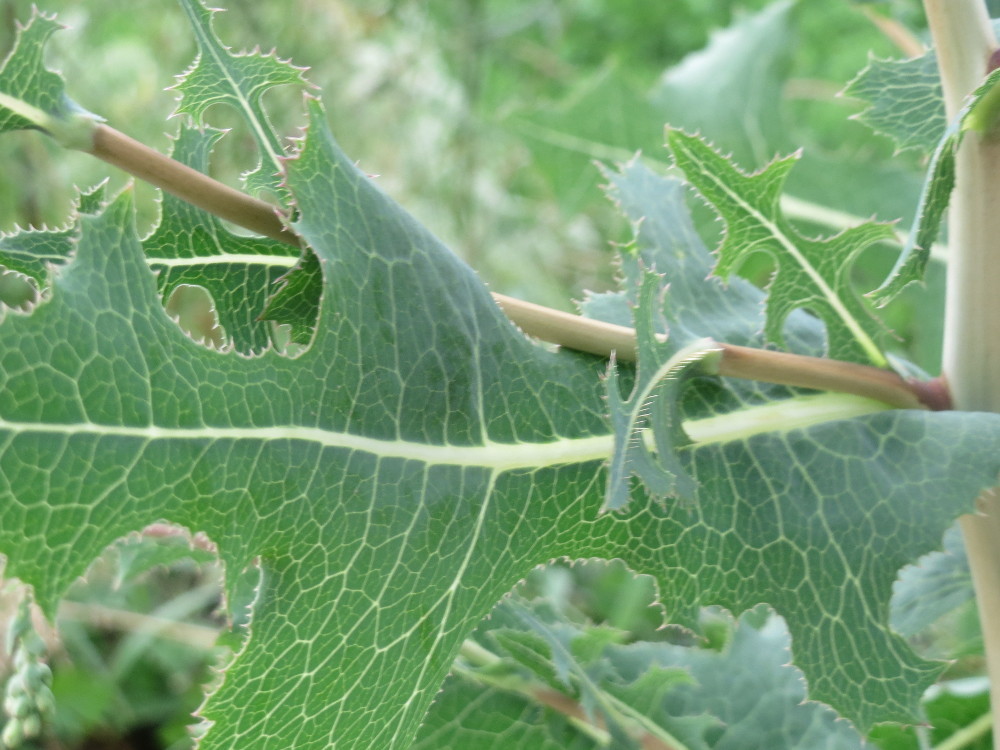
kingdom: Plantae
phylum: Tracheophyta
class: Magnoliopsida
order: Asterales
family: Asteraceae
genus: Lactuca
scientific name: Lactuca serriola
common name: Prickly lettuce
